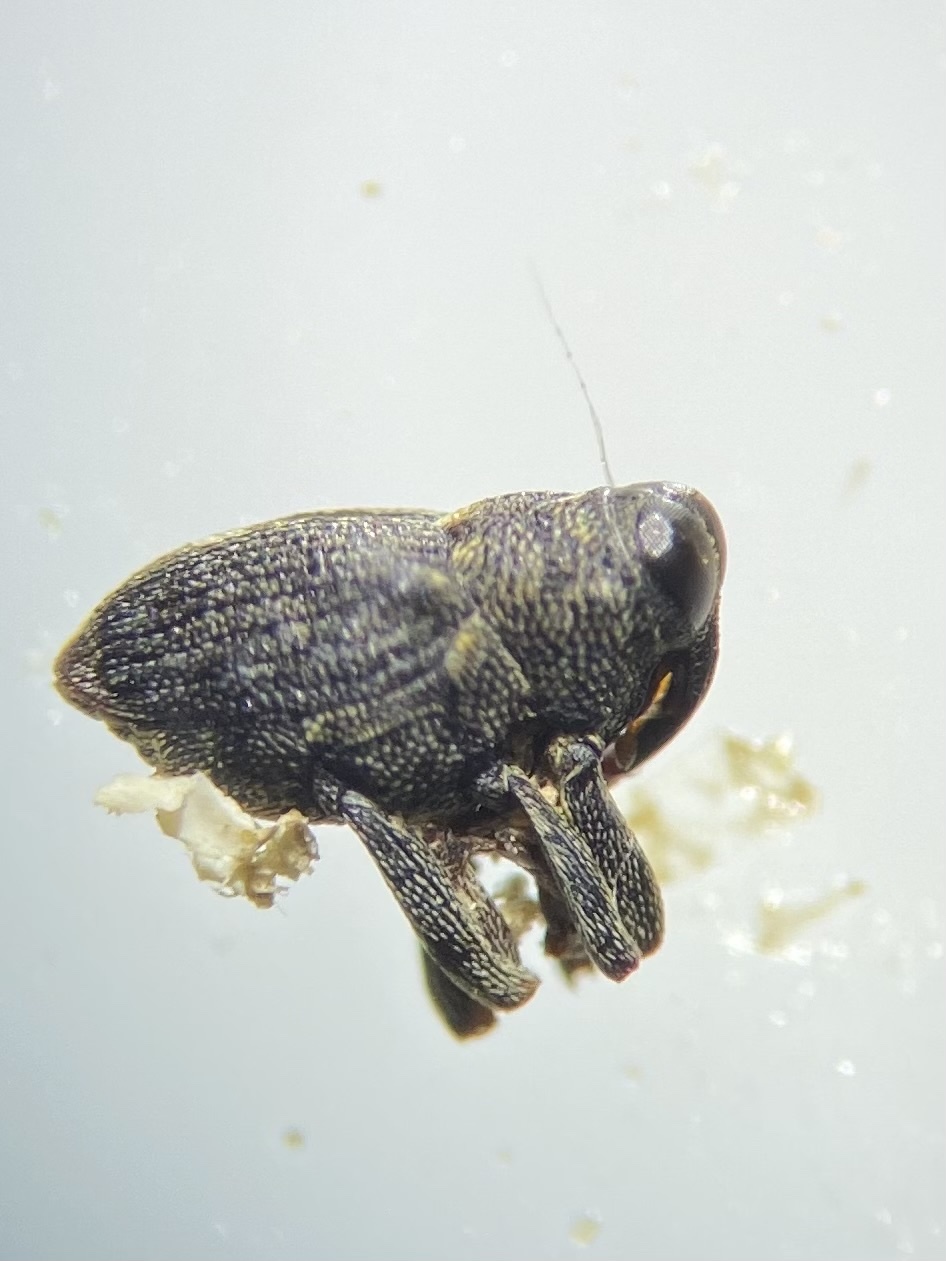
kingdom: Animalia
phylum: Arthropoda
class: Insecta
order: Coleoptera
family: Curculionidae
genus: Lechriops
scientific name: Lechriops oculatus
